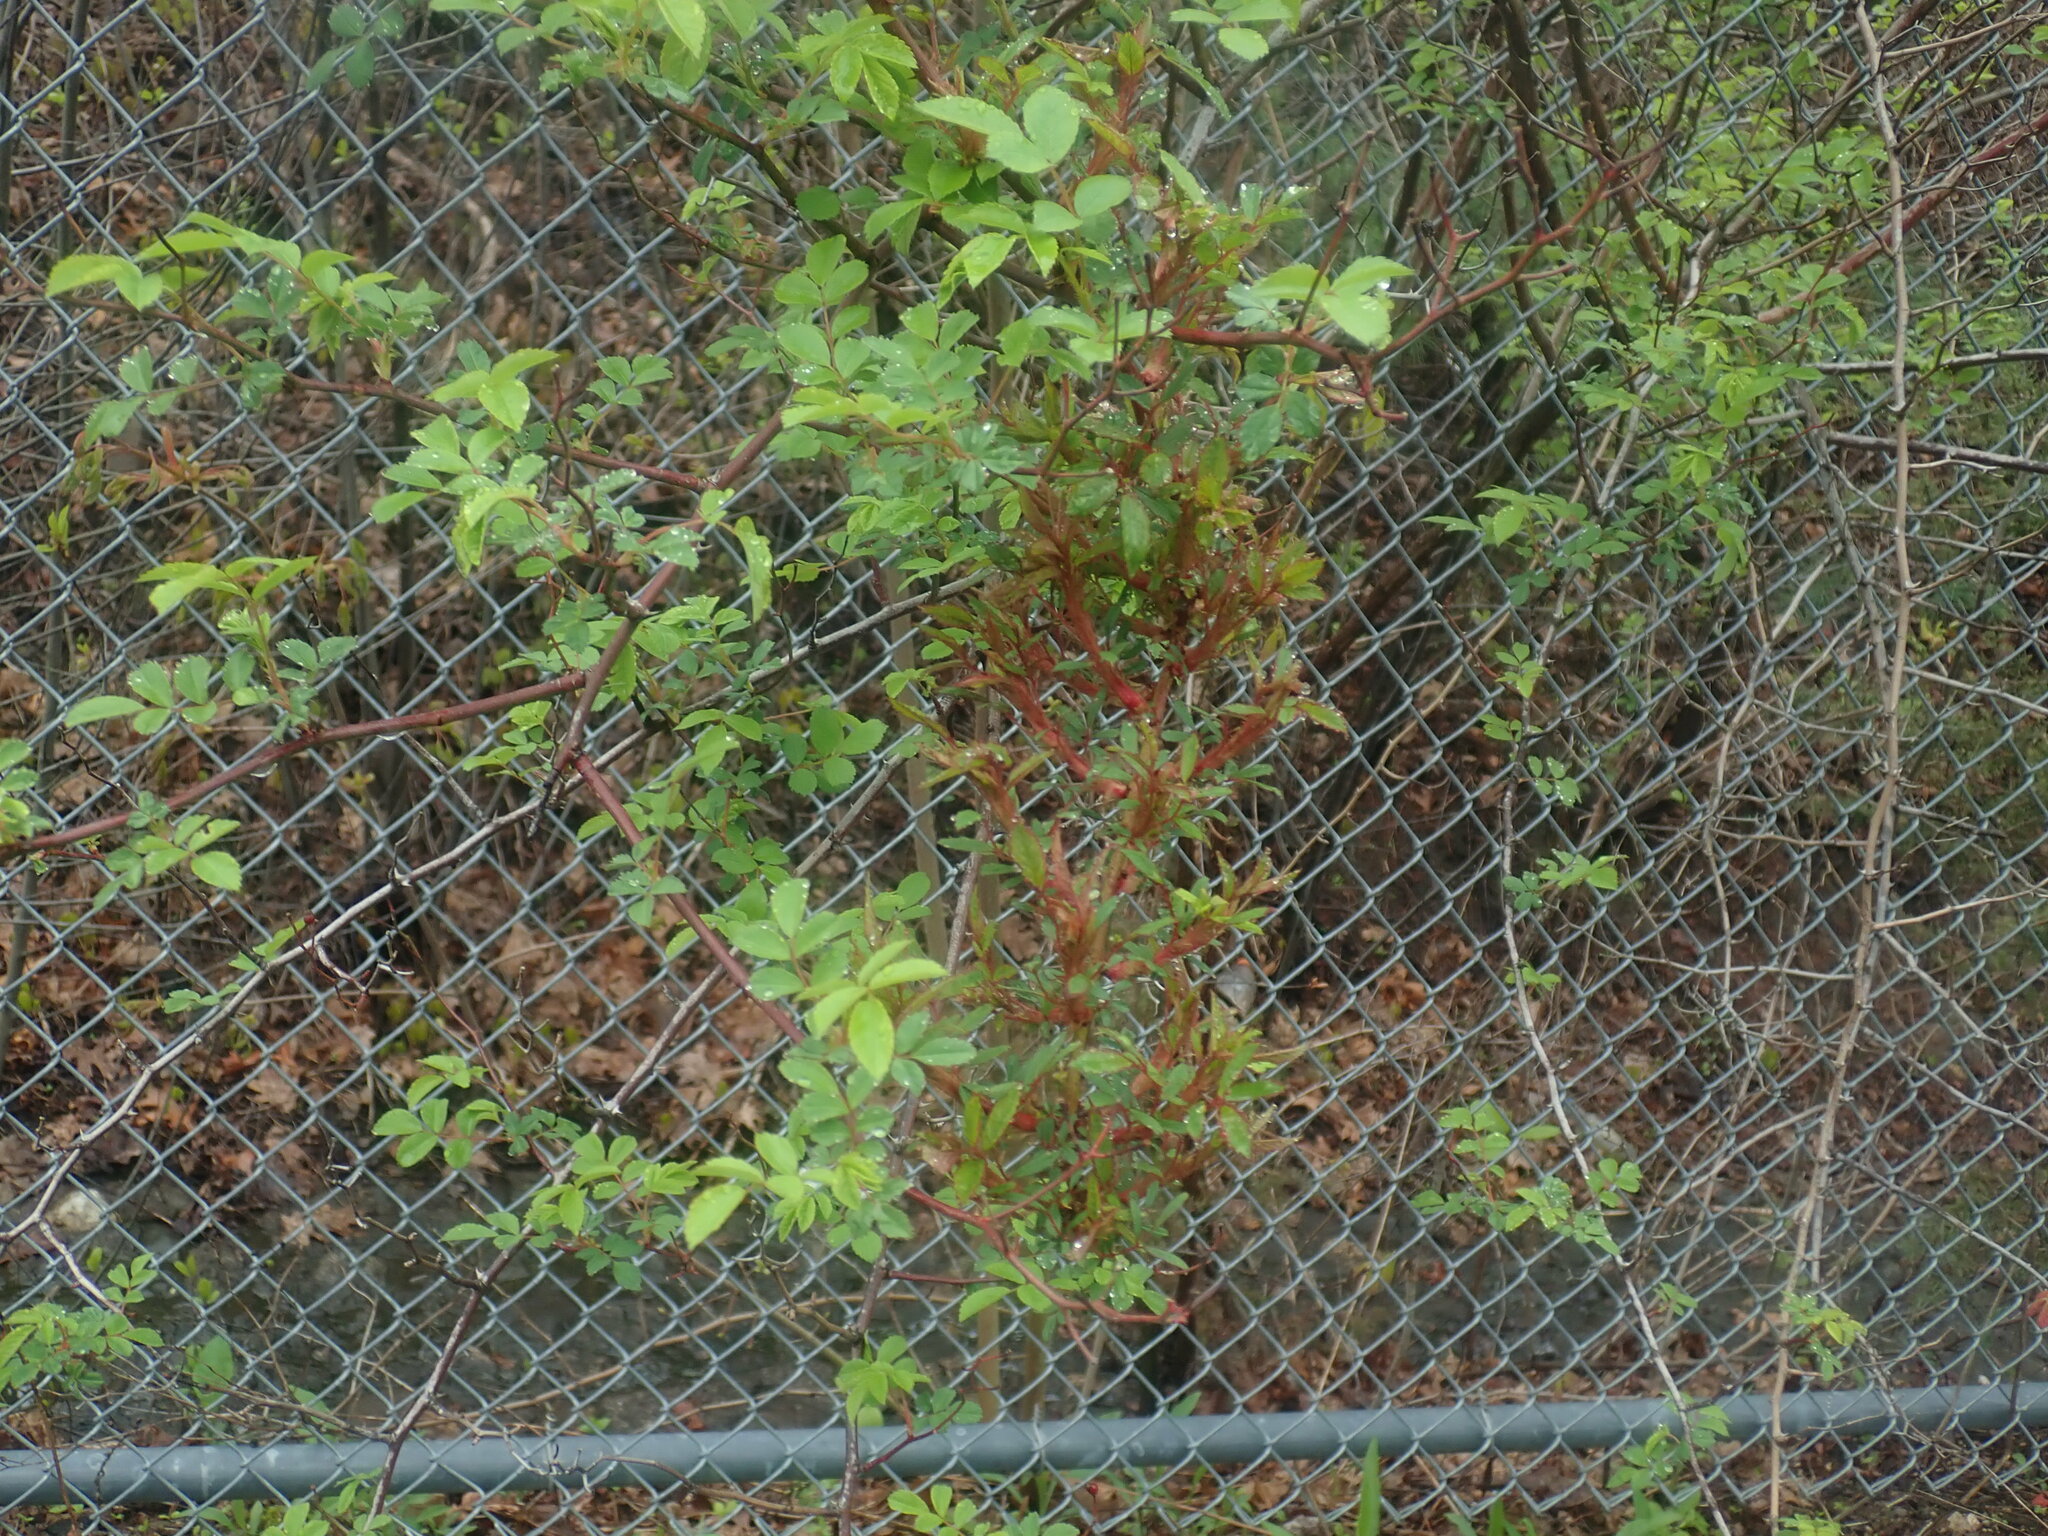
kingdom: Viruses
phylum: Negarnaviricota
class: Ellioviricetes
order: Bunyavirales
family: Fimoviridae
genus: Emaravirus
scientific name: Emaravirus rosae
